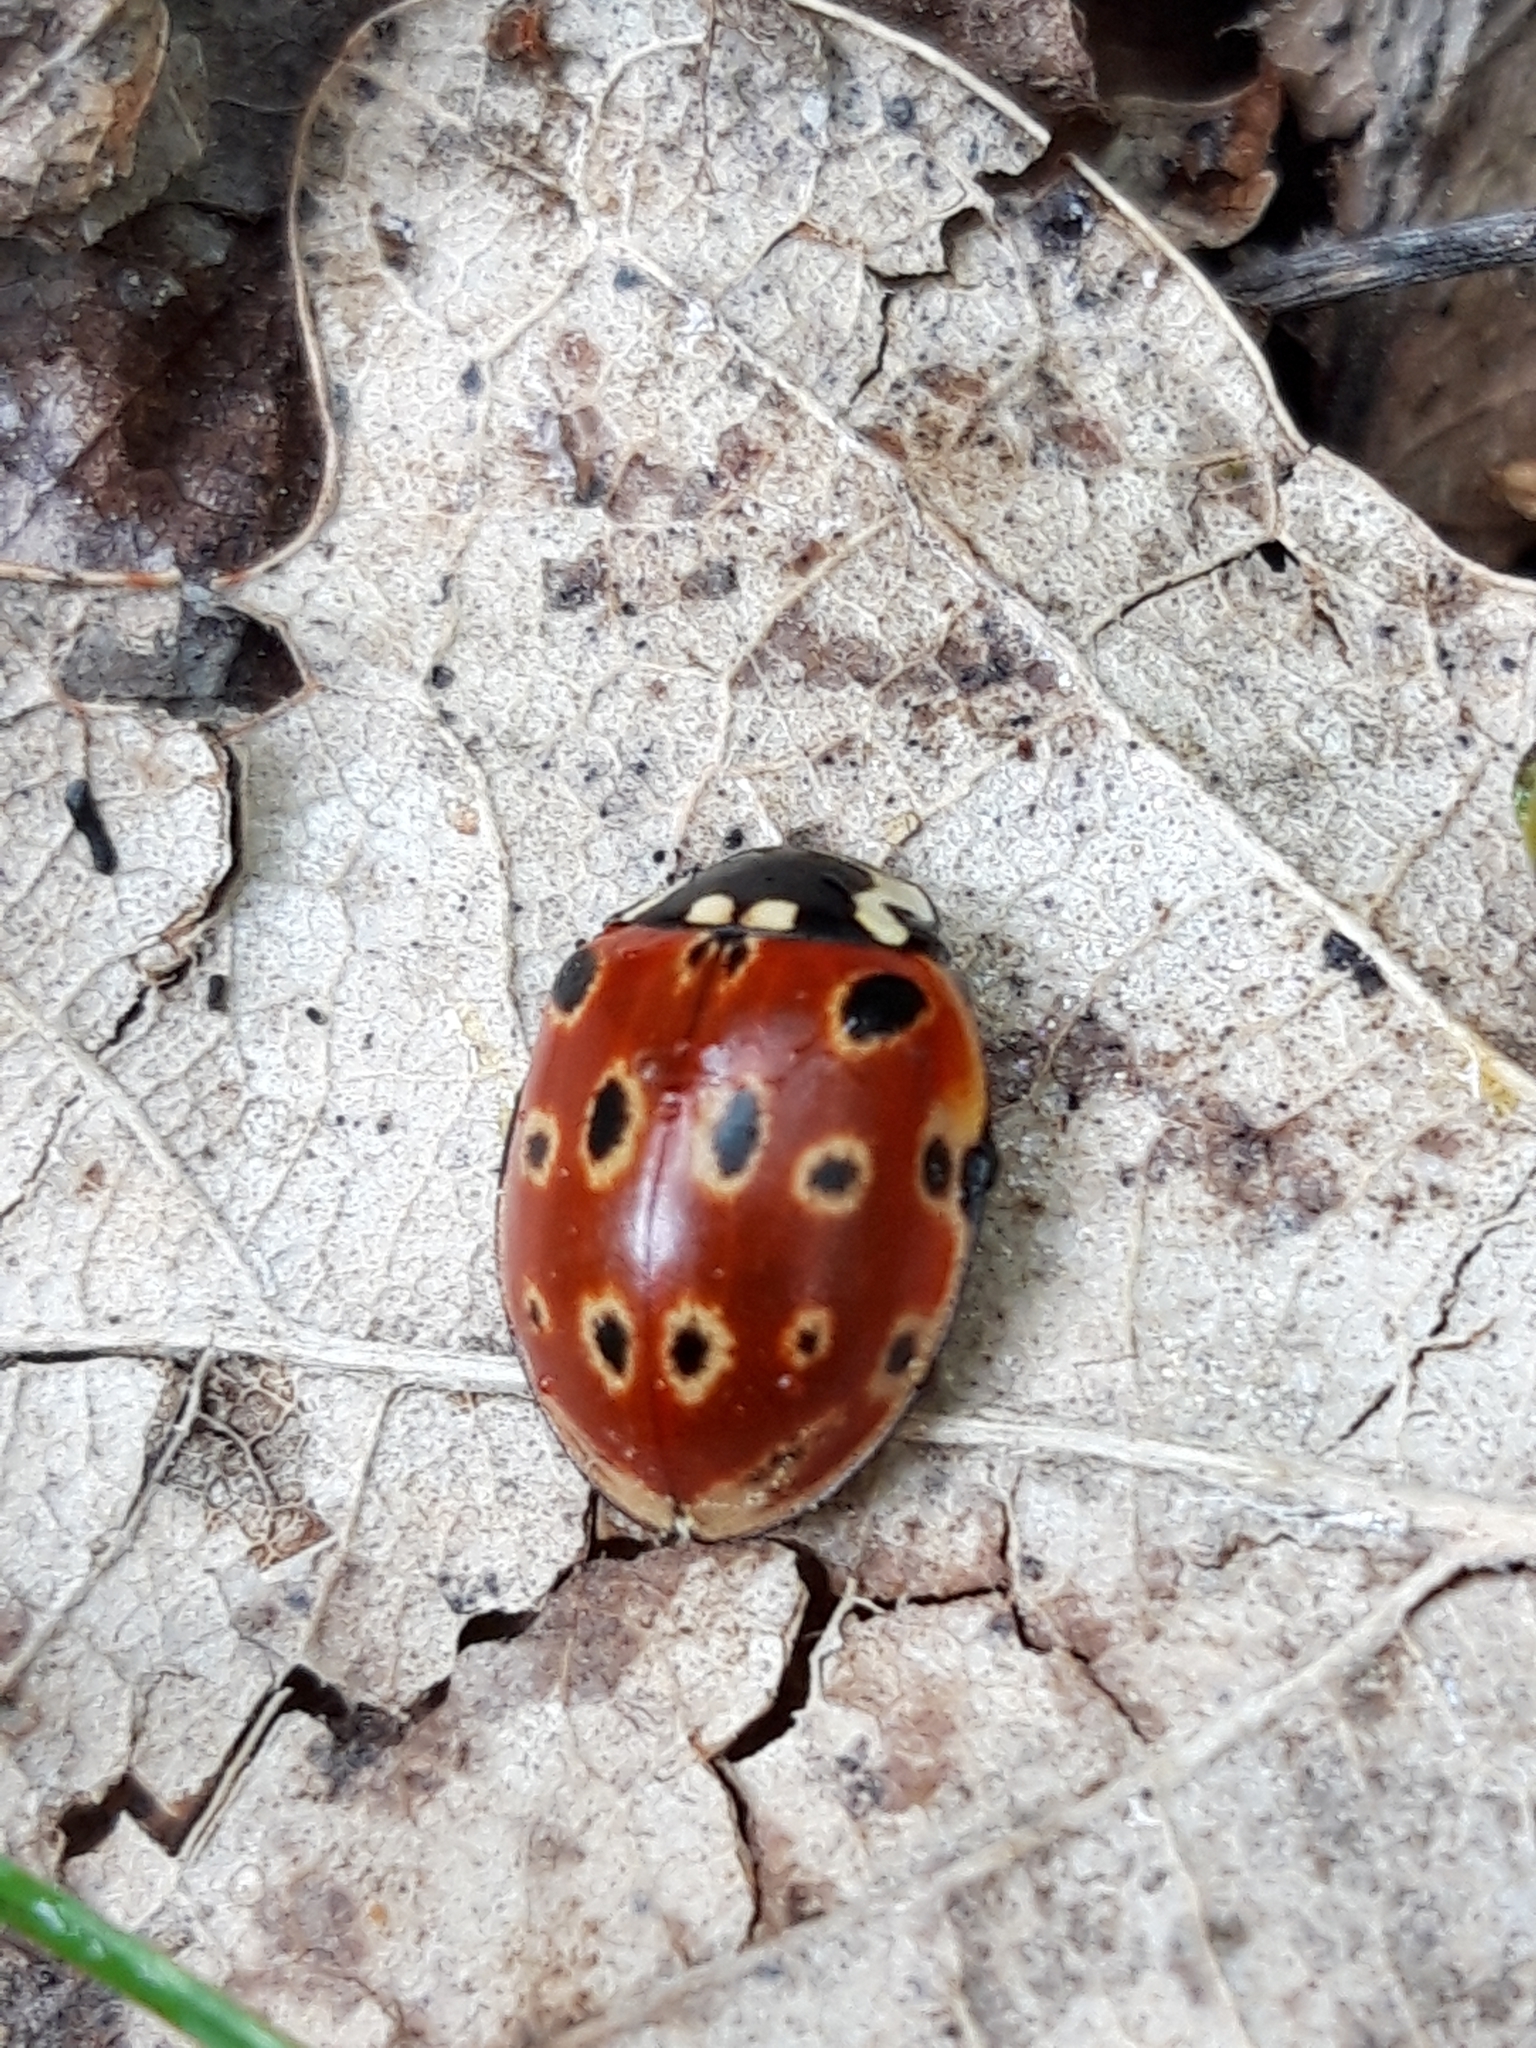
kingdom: Animalia
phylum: Arthropoda
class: Insecta
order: Coleoptera
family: Coccinellidae
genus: Anatis
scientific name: Anatis ocellata
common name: Eyed ladybird
